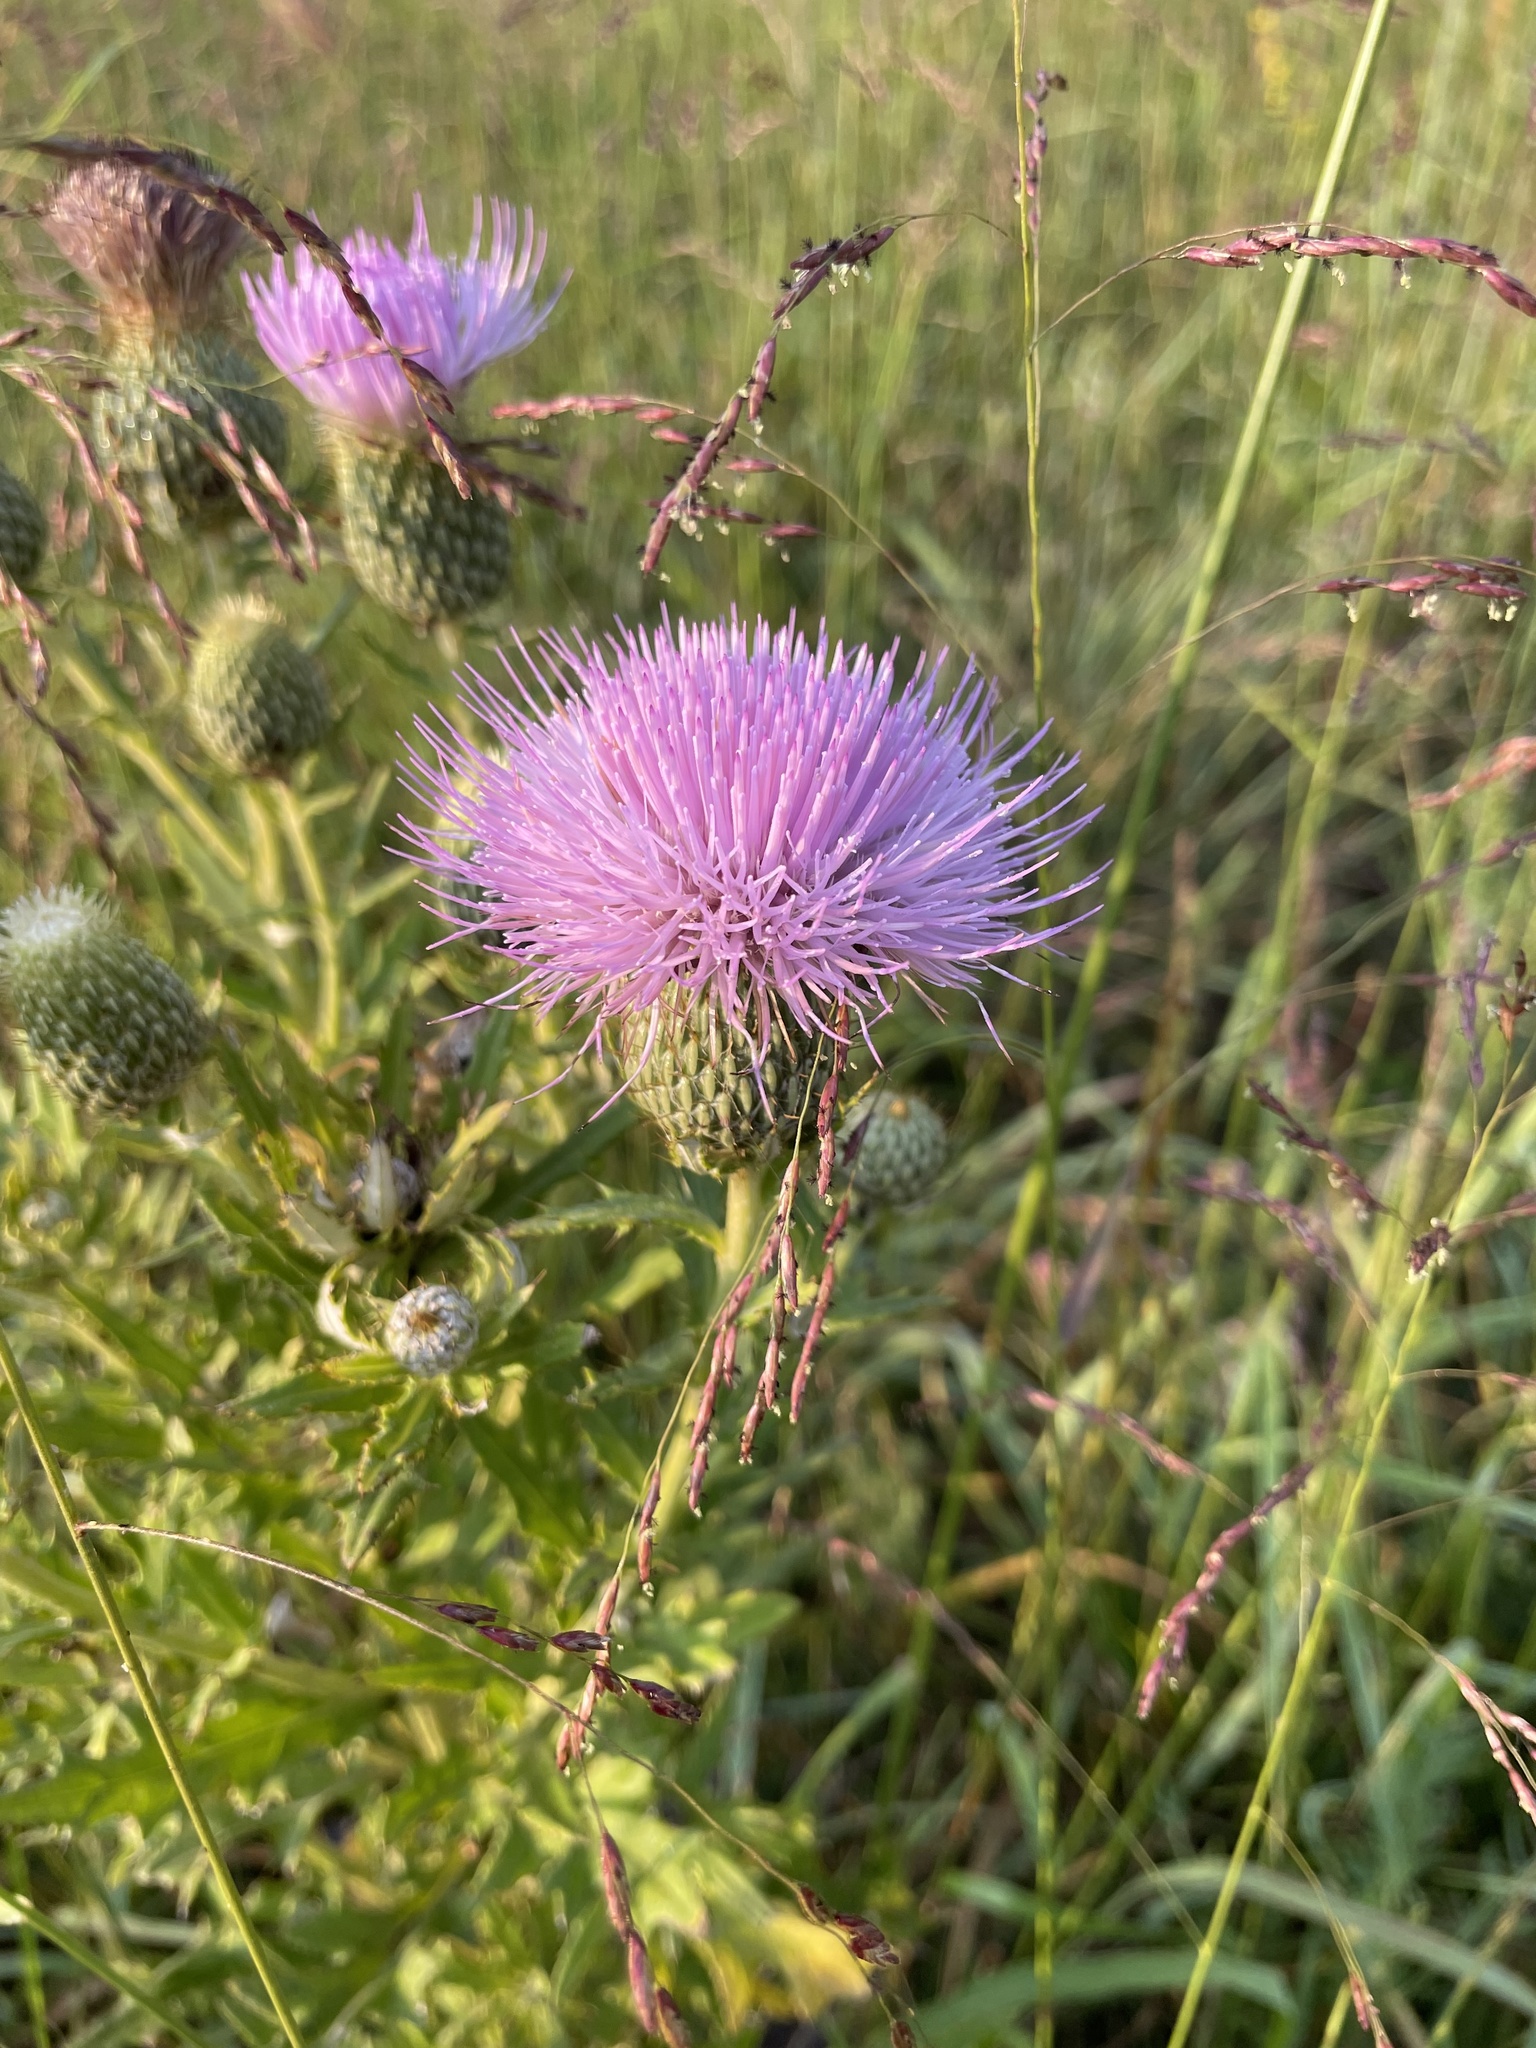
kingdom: Plantae
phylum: Tracheophyta
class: Magnoliopsida
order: Asterales
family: Asteraceae
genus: Cirsium
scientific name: Cirsium altissimum
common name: Roadside thistle
